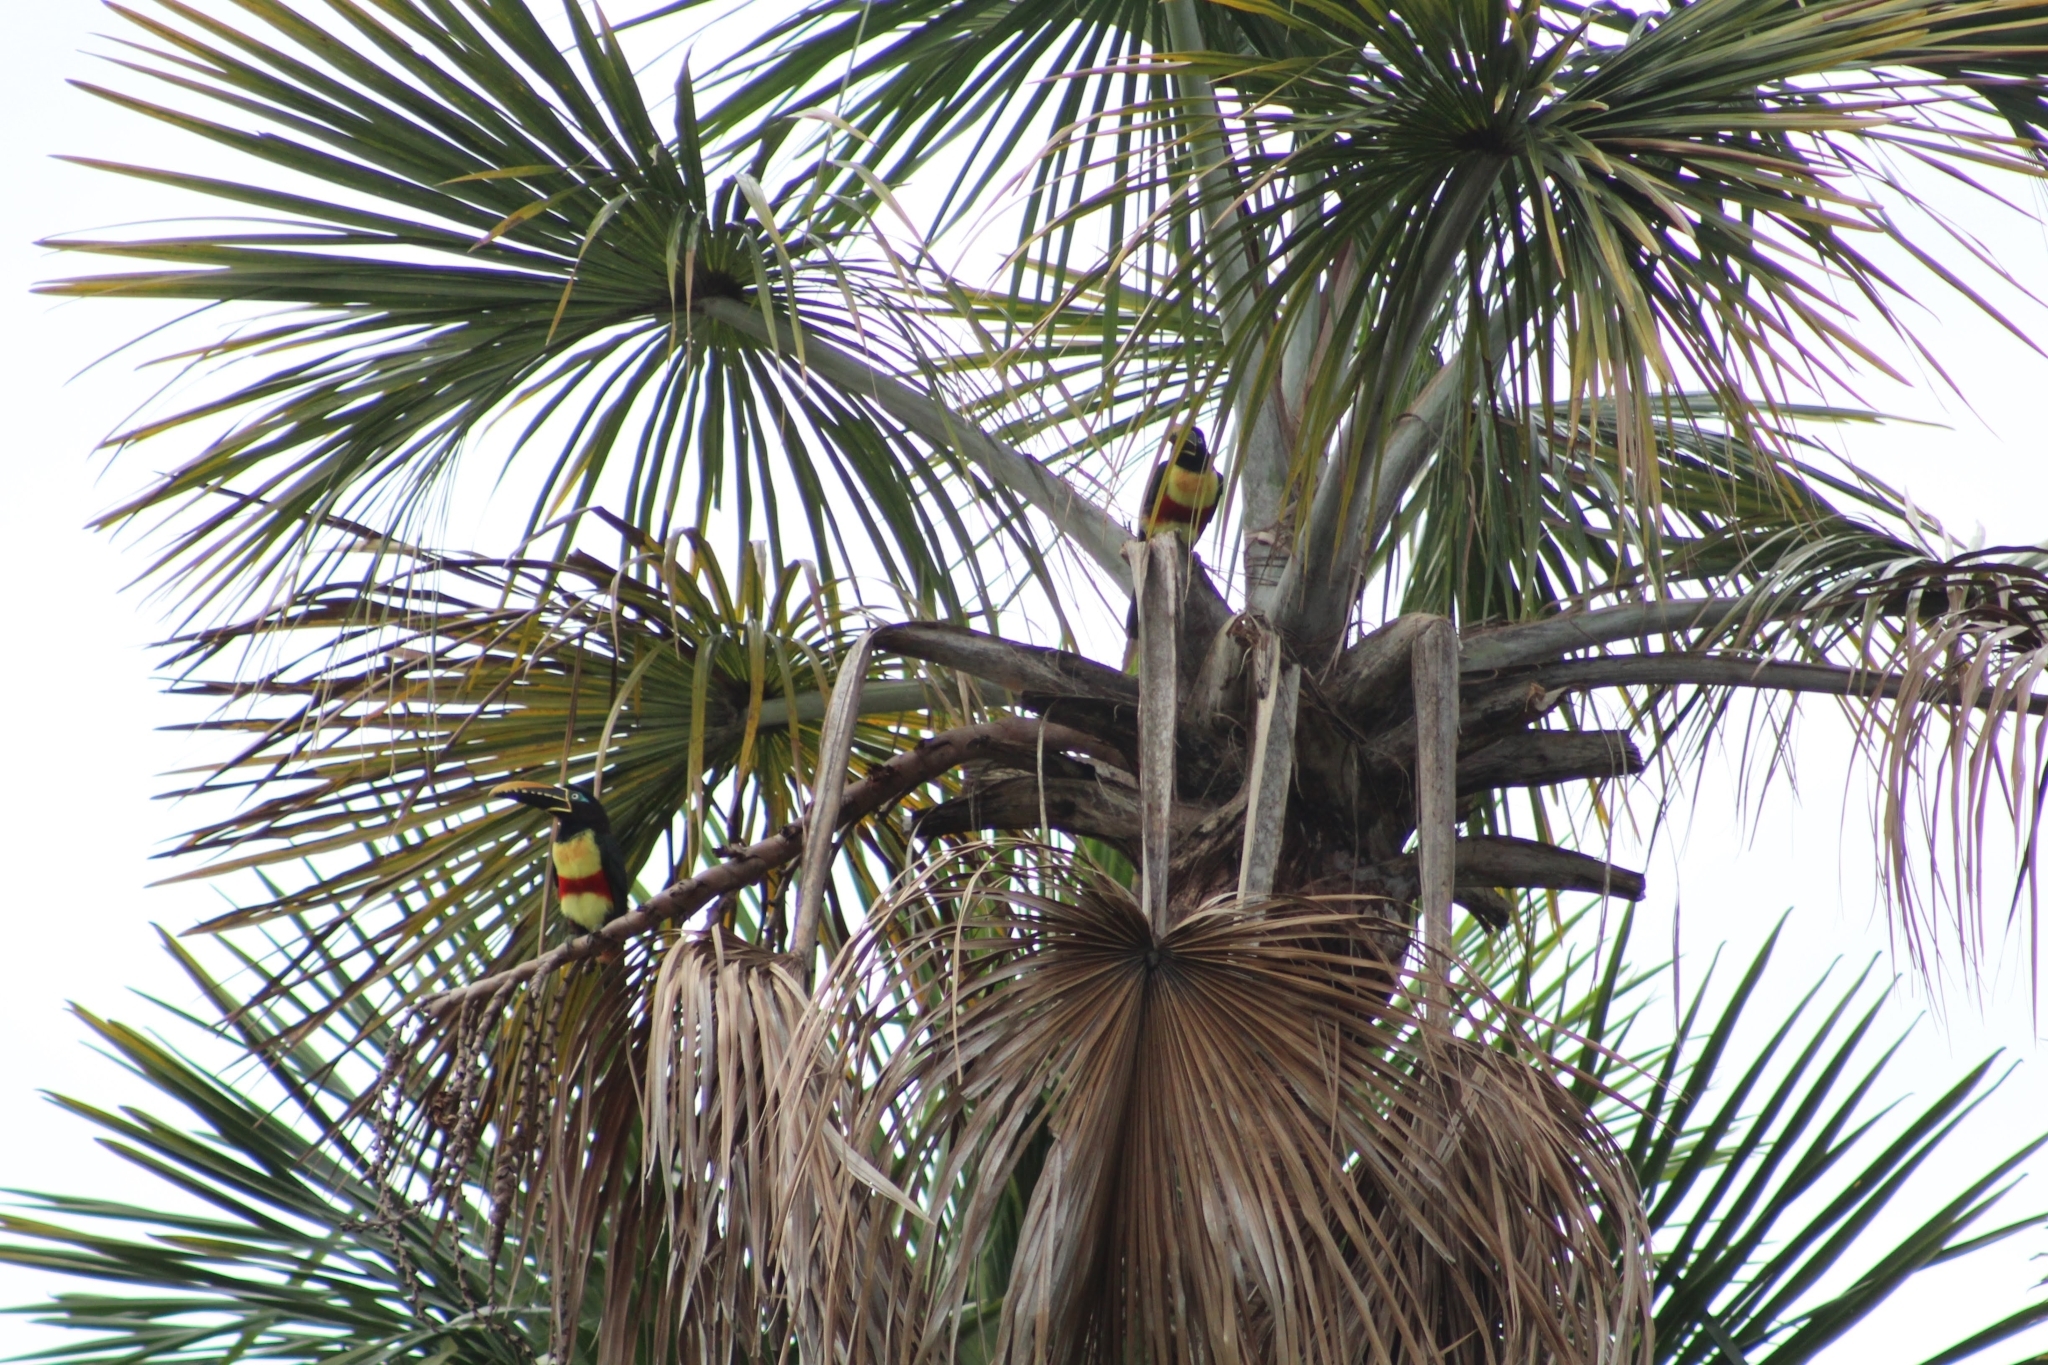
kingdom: Animalia
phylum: Chordata
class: Aves
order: Piciformes
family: Ramphastidae
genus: Pteroglossus
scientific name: Pteroglossus castanotis
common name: Chestnut-eared aracari
